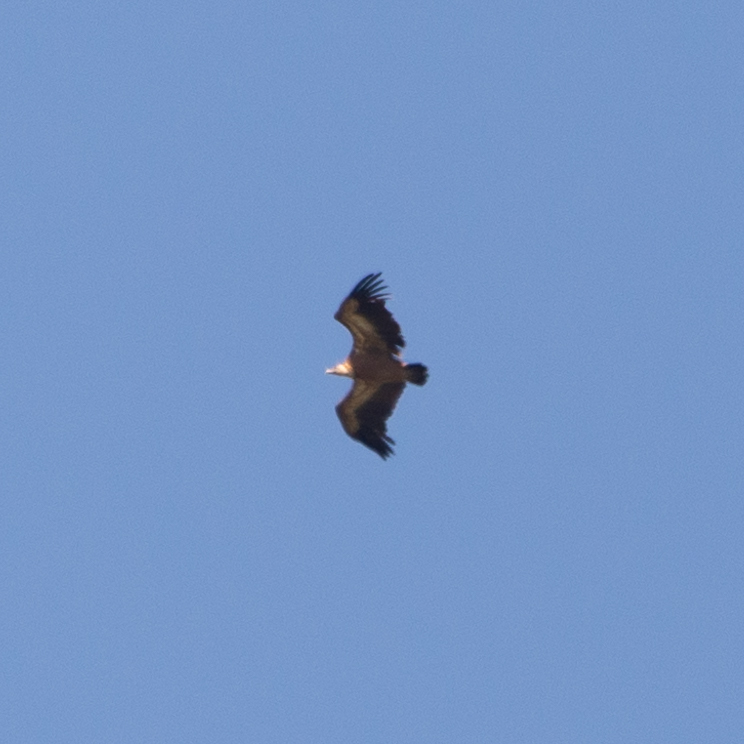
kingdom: Animalia
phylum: Chordata
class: Aves
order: Accipitriformes
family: Accipitridae
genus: Gyps
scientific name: Gyps fulvus
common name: Griffon vulture
